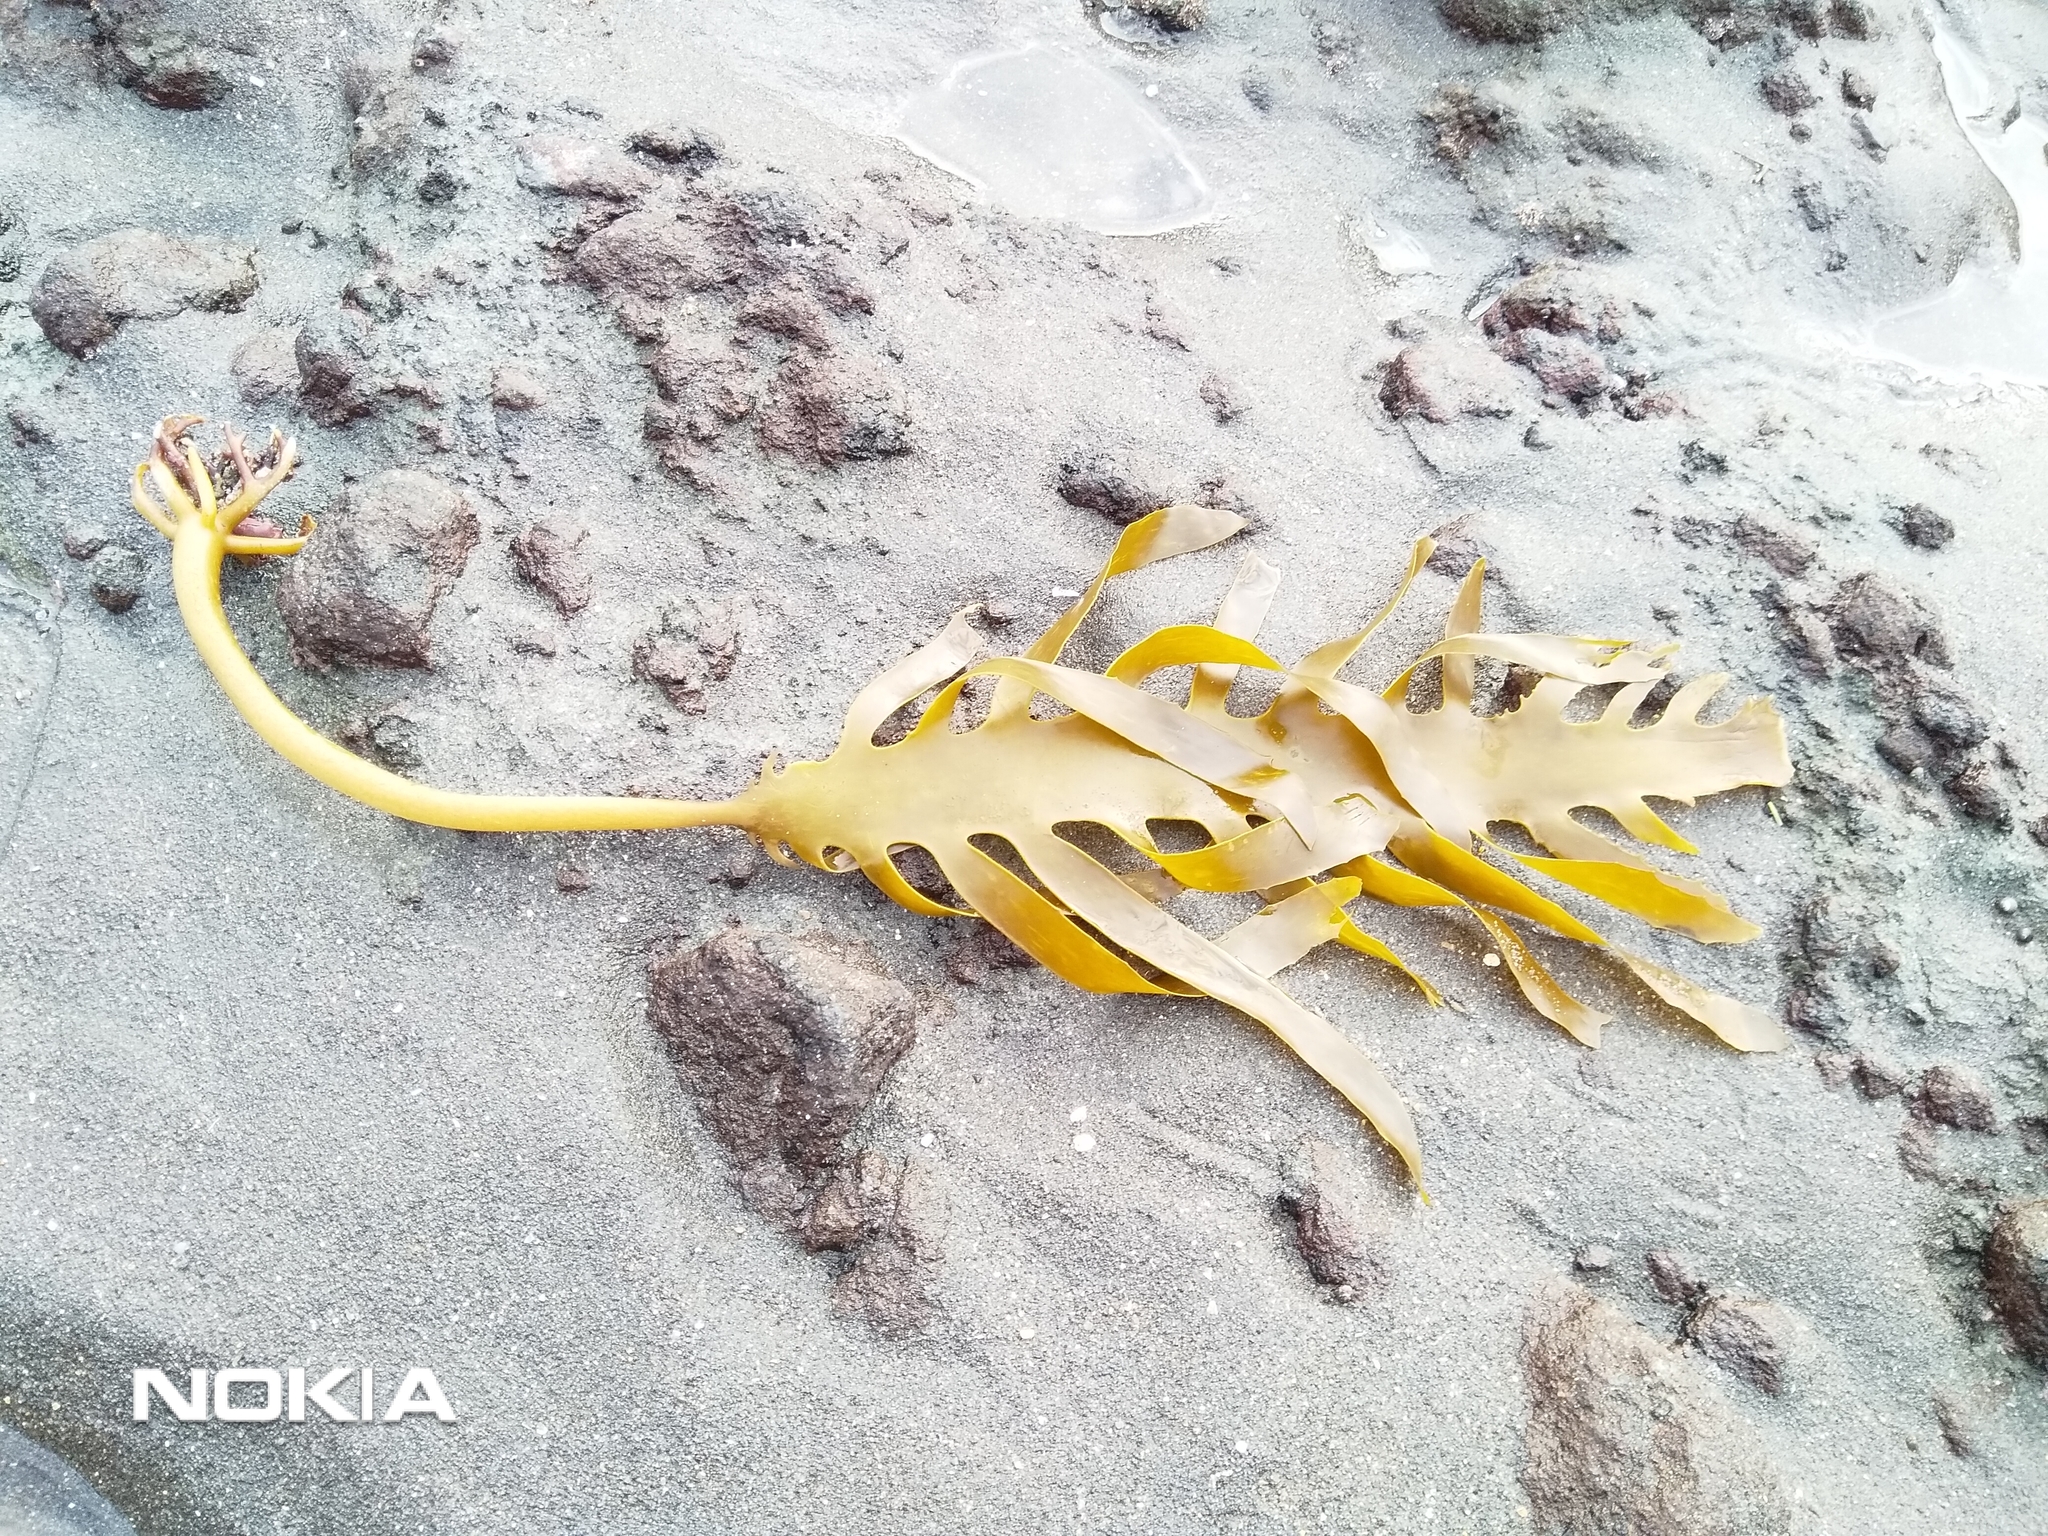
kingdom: Chromista
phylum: Ochrophyta
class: Phaeophyceae
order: Laminariales
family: Lessoniaceae
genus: Ecklonia
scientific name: Ecklonia radiata
